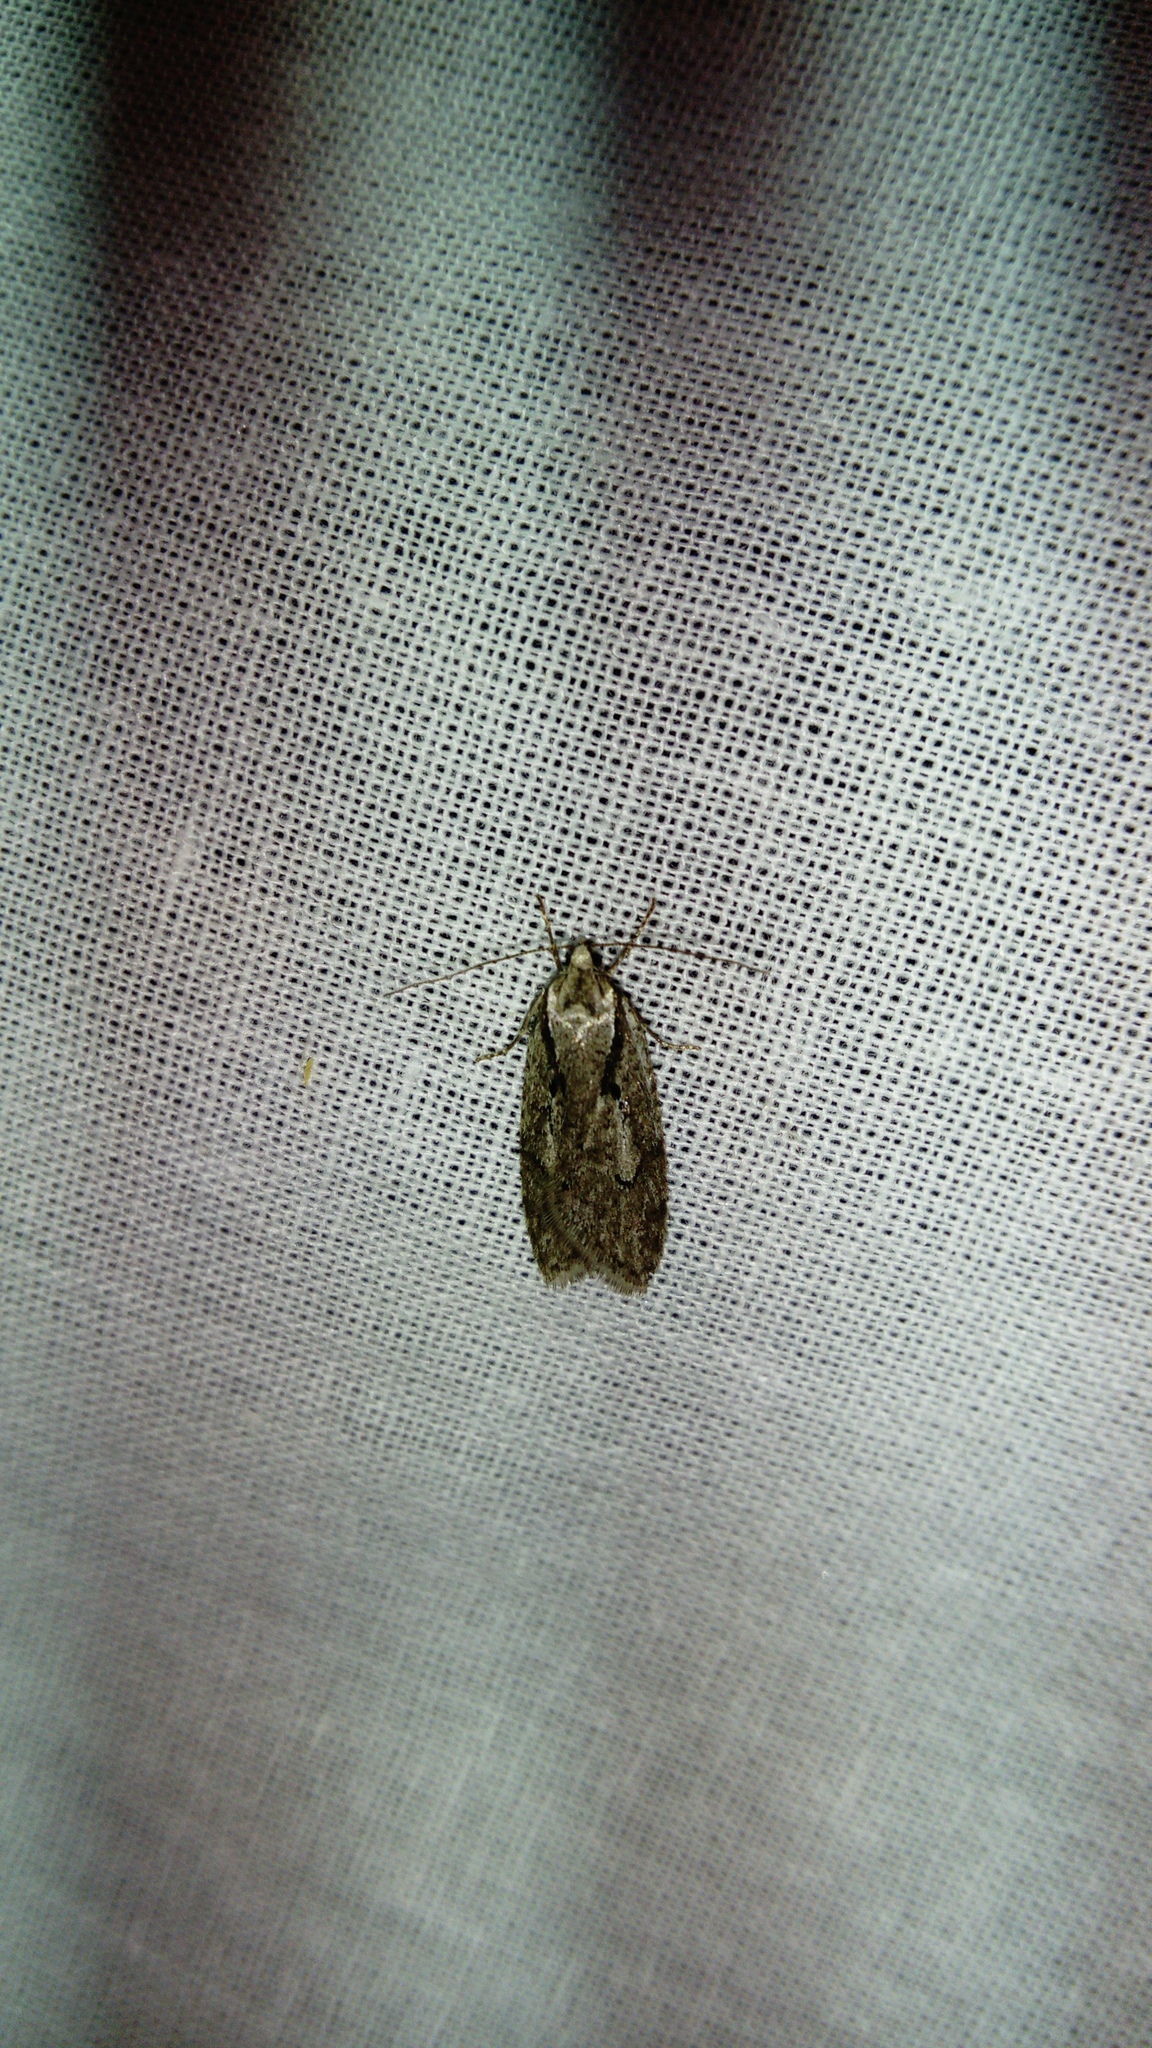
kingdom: Animalia
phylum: Arthropoda
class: Insecta
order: Lepidoptera
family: Depressariidae
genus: Semioscopis
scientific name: Semioscopis avellanella
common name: Early flat-body
